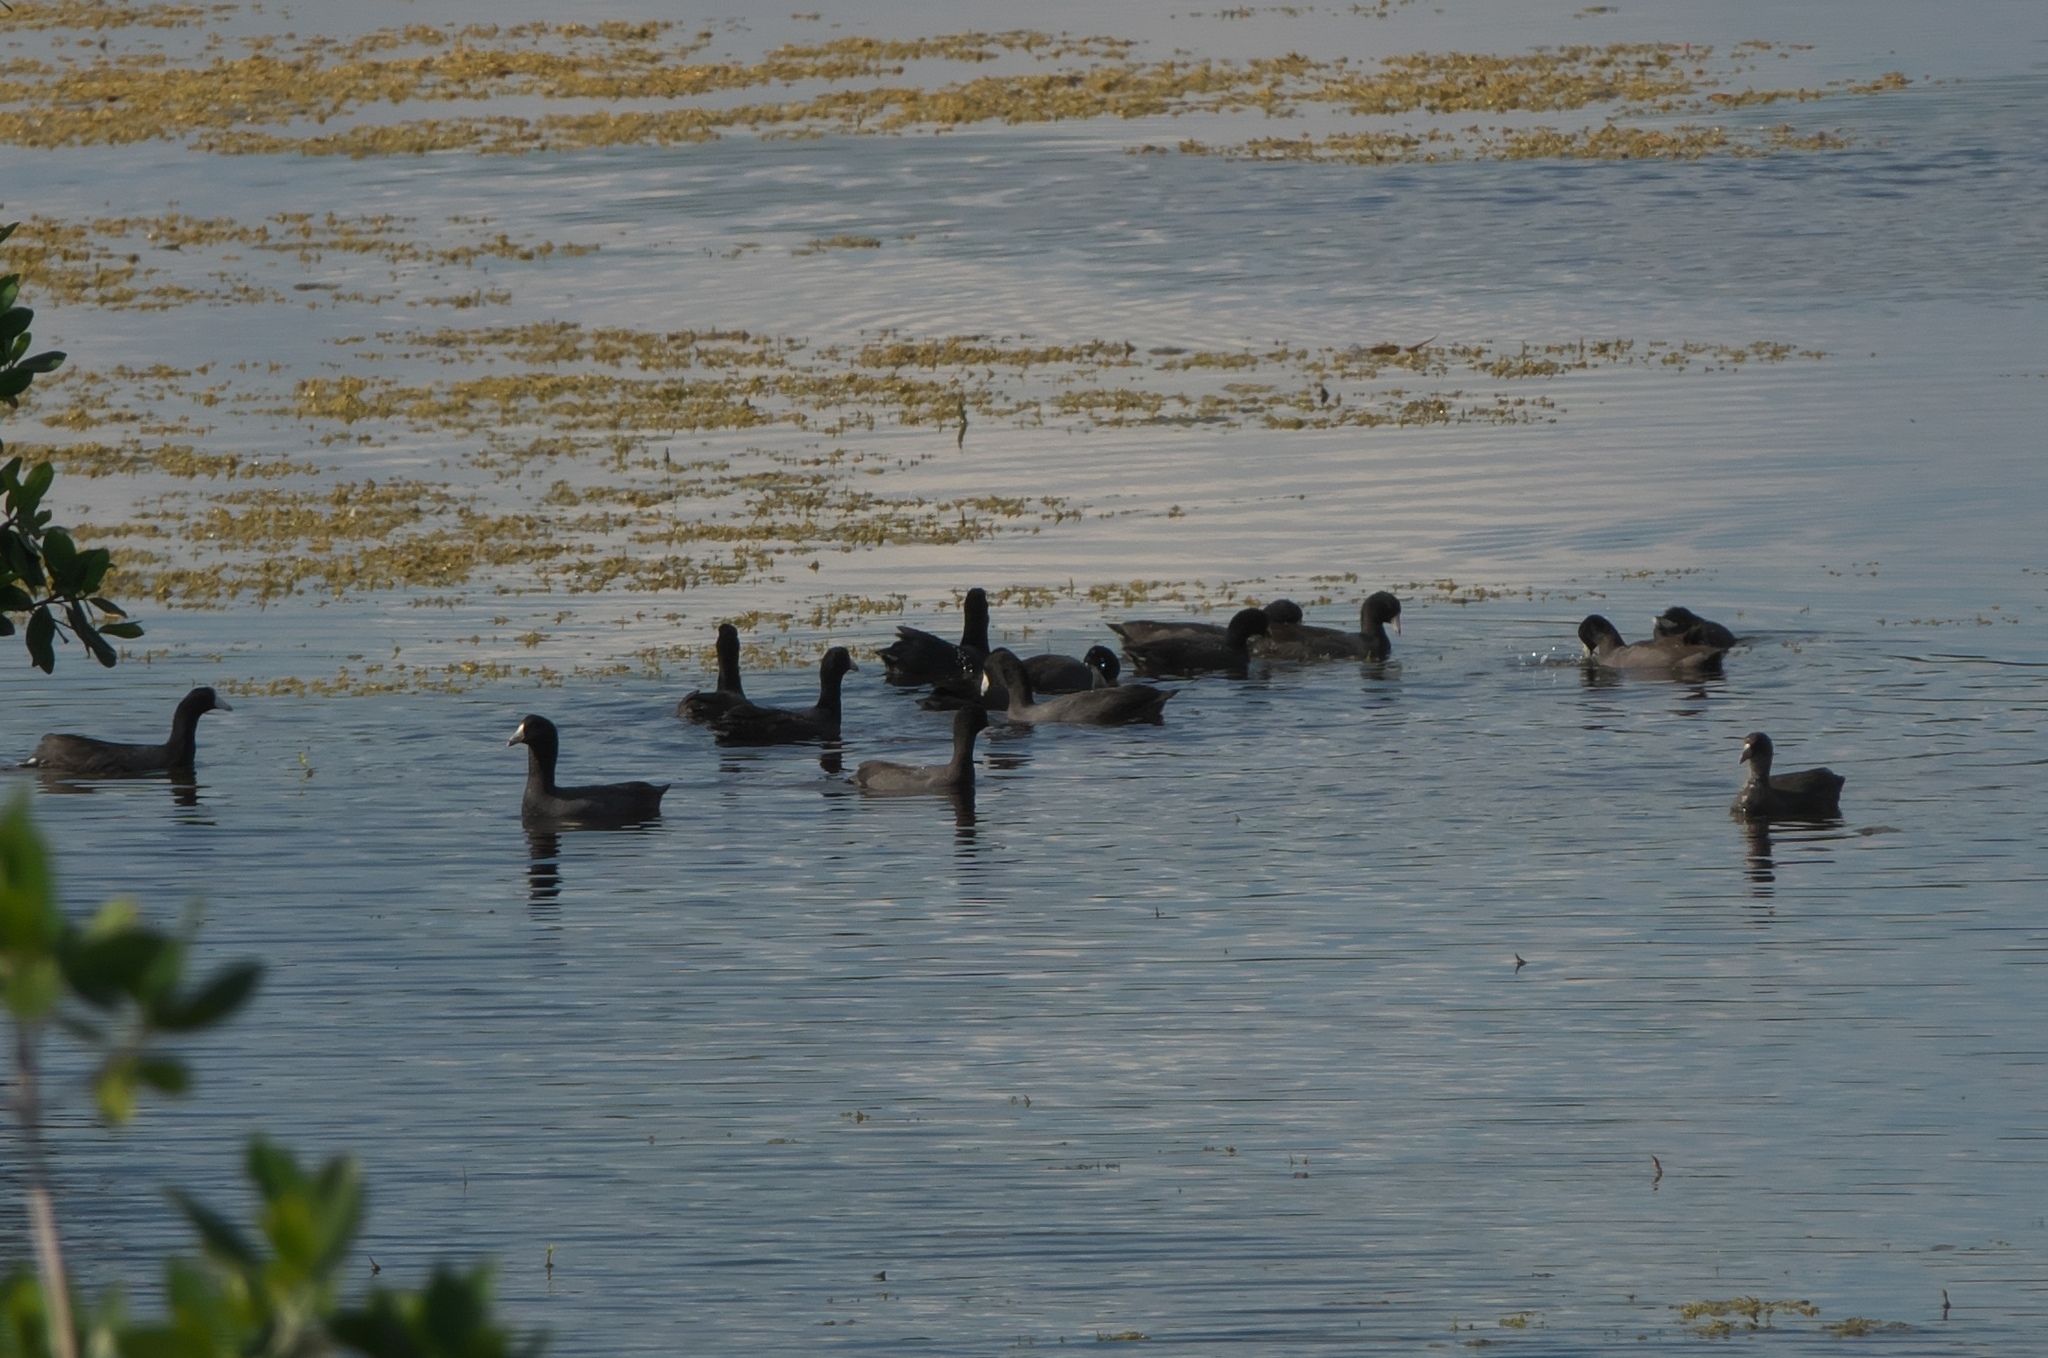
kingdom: Animalia
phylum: Chordata
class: Aves
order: Gruiformes
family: Rallidae
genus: Fulica
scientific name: Fulica americana
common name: American coot
